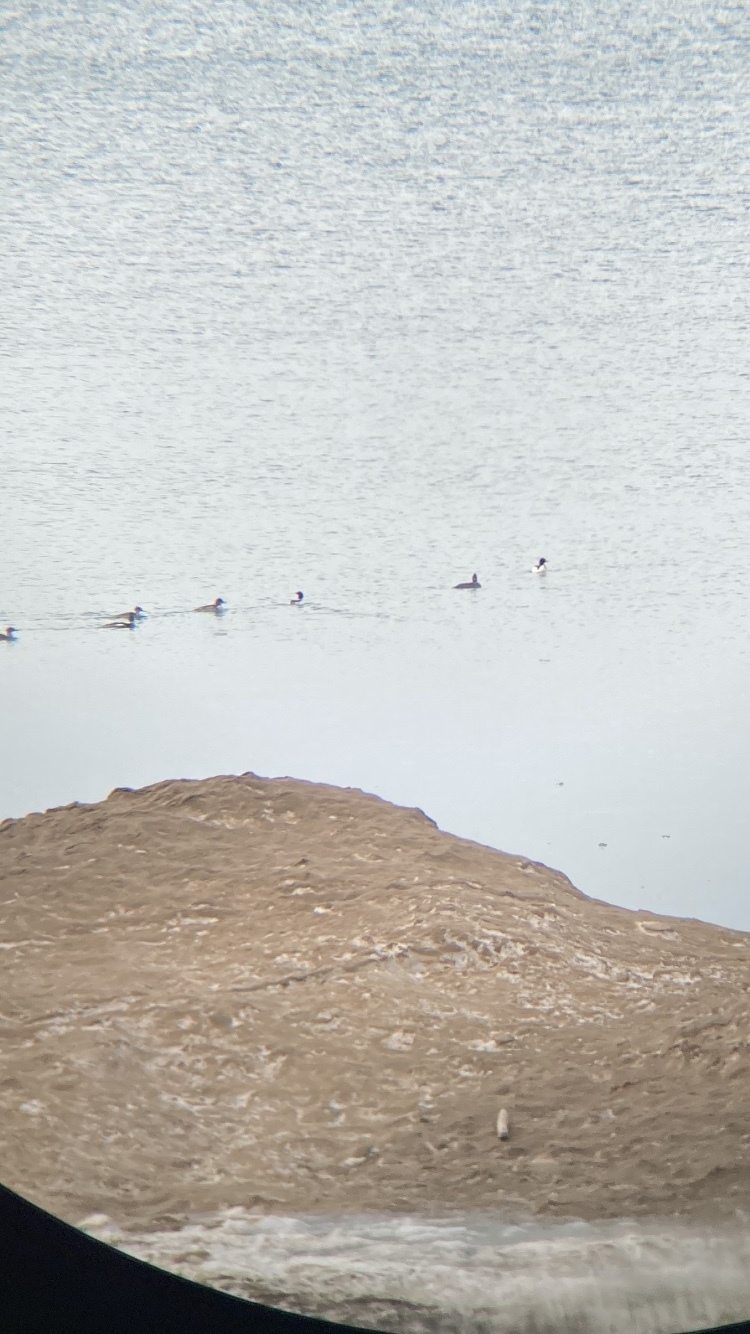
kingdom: Animalia
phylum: Chordata
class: Aves
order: Anseriformes
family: Anatidae
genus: Mergus
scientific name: Mergus merganser
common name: Common merganser
